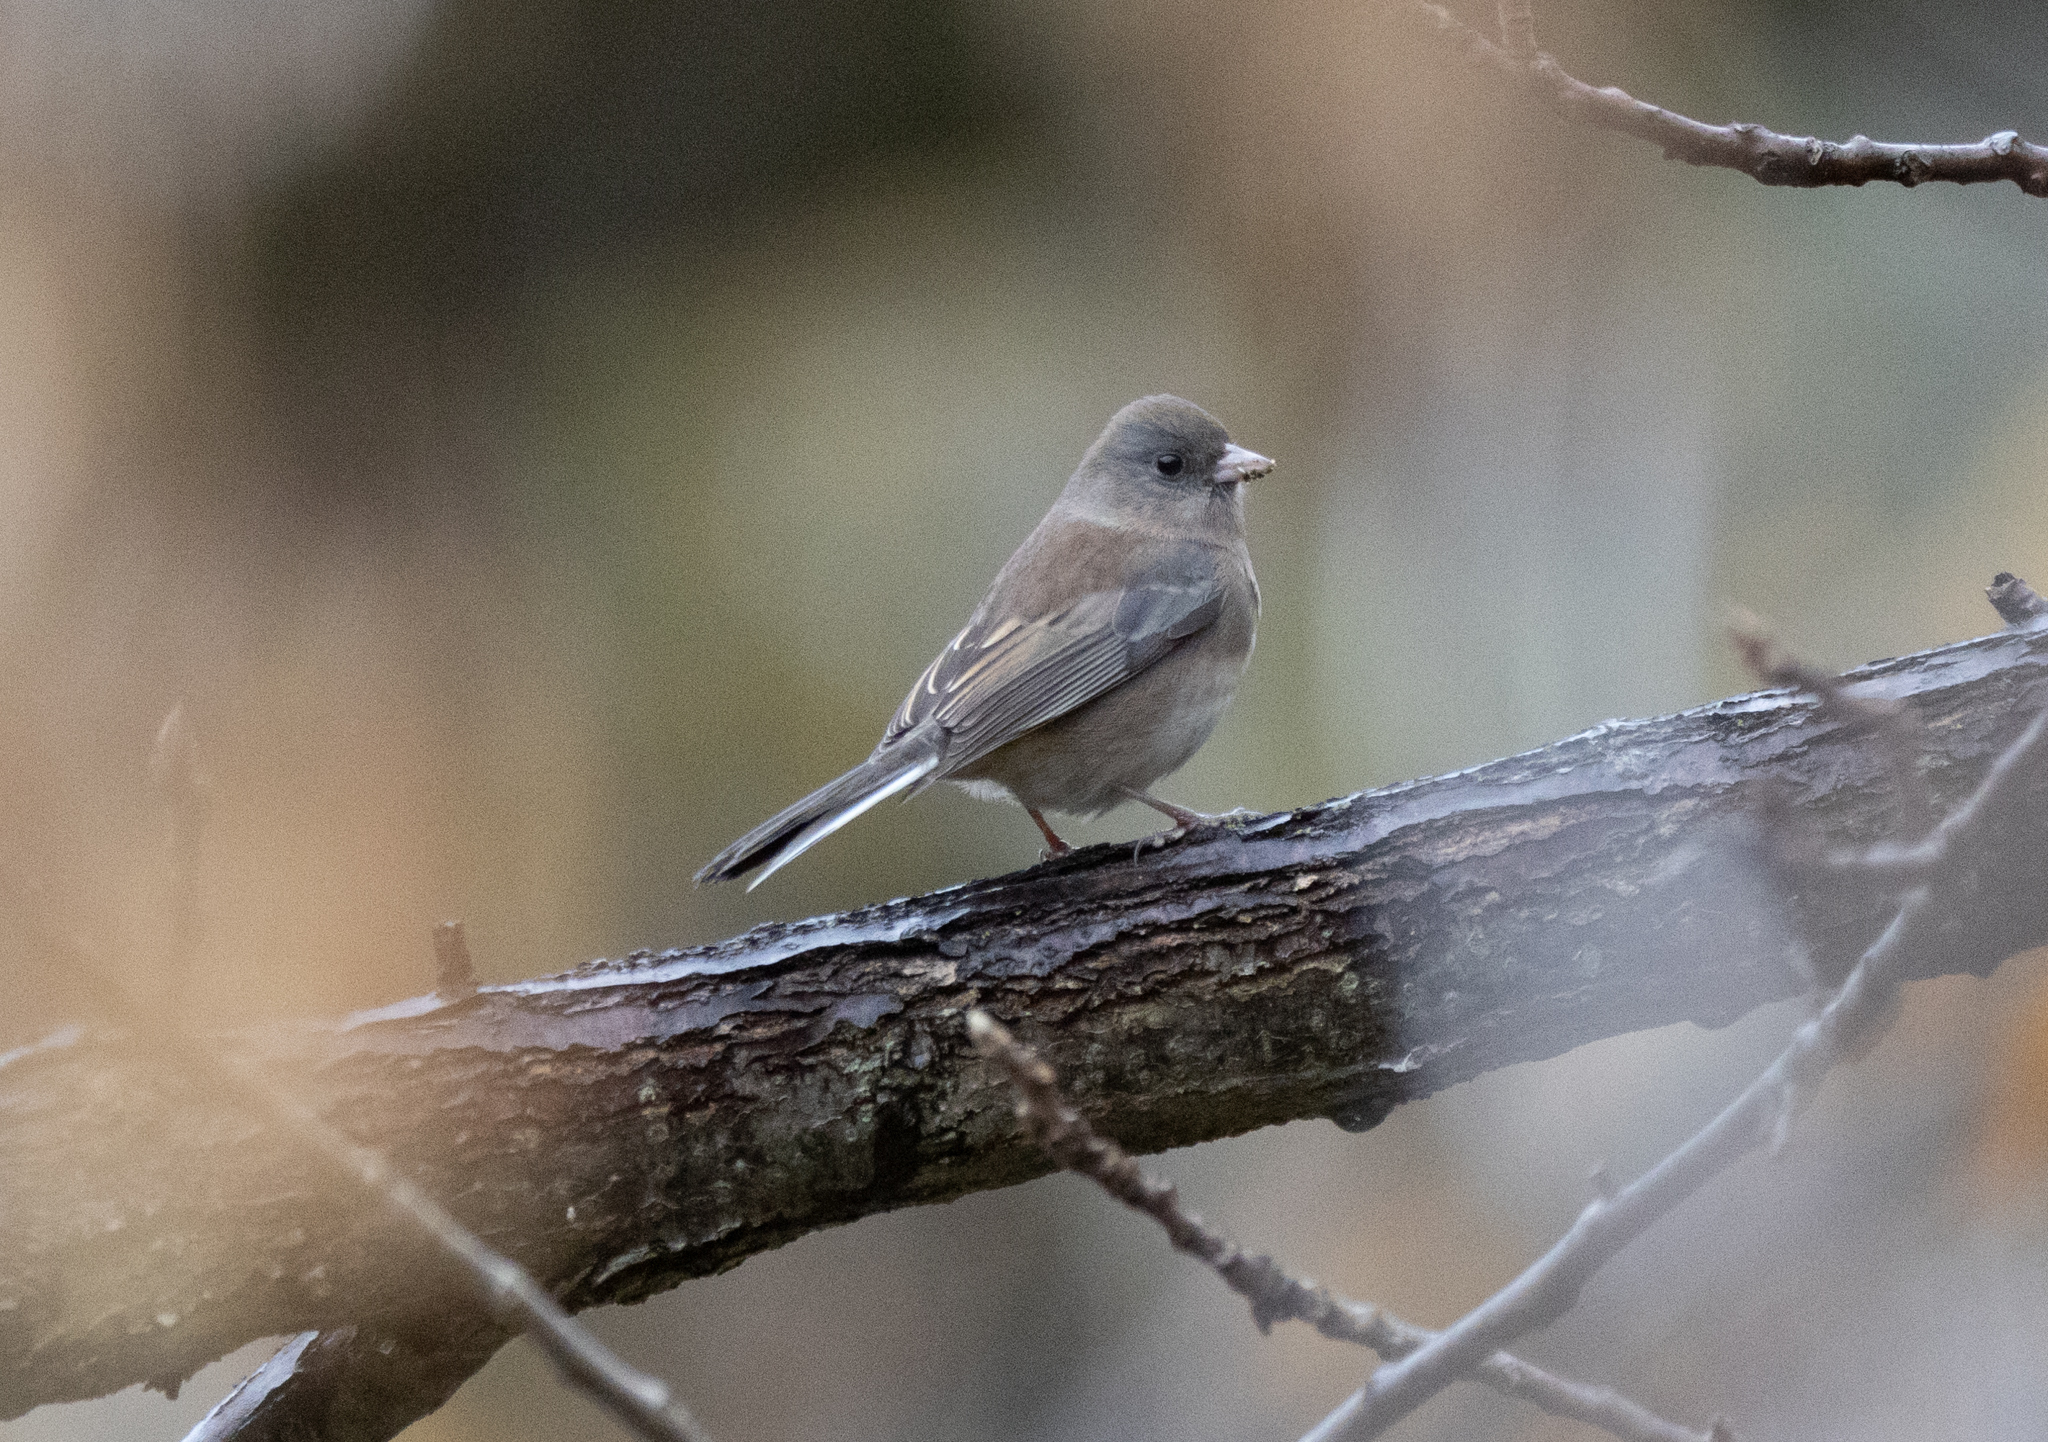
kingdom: Animalia
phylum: Chordata
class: Aves
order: Passeriformes
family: Passerellidae
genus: Junco
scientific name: Junco hyemalis
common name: Dark-eyed junco
